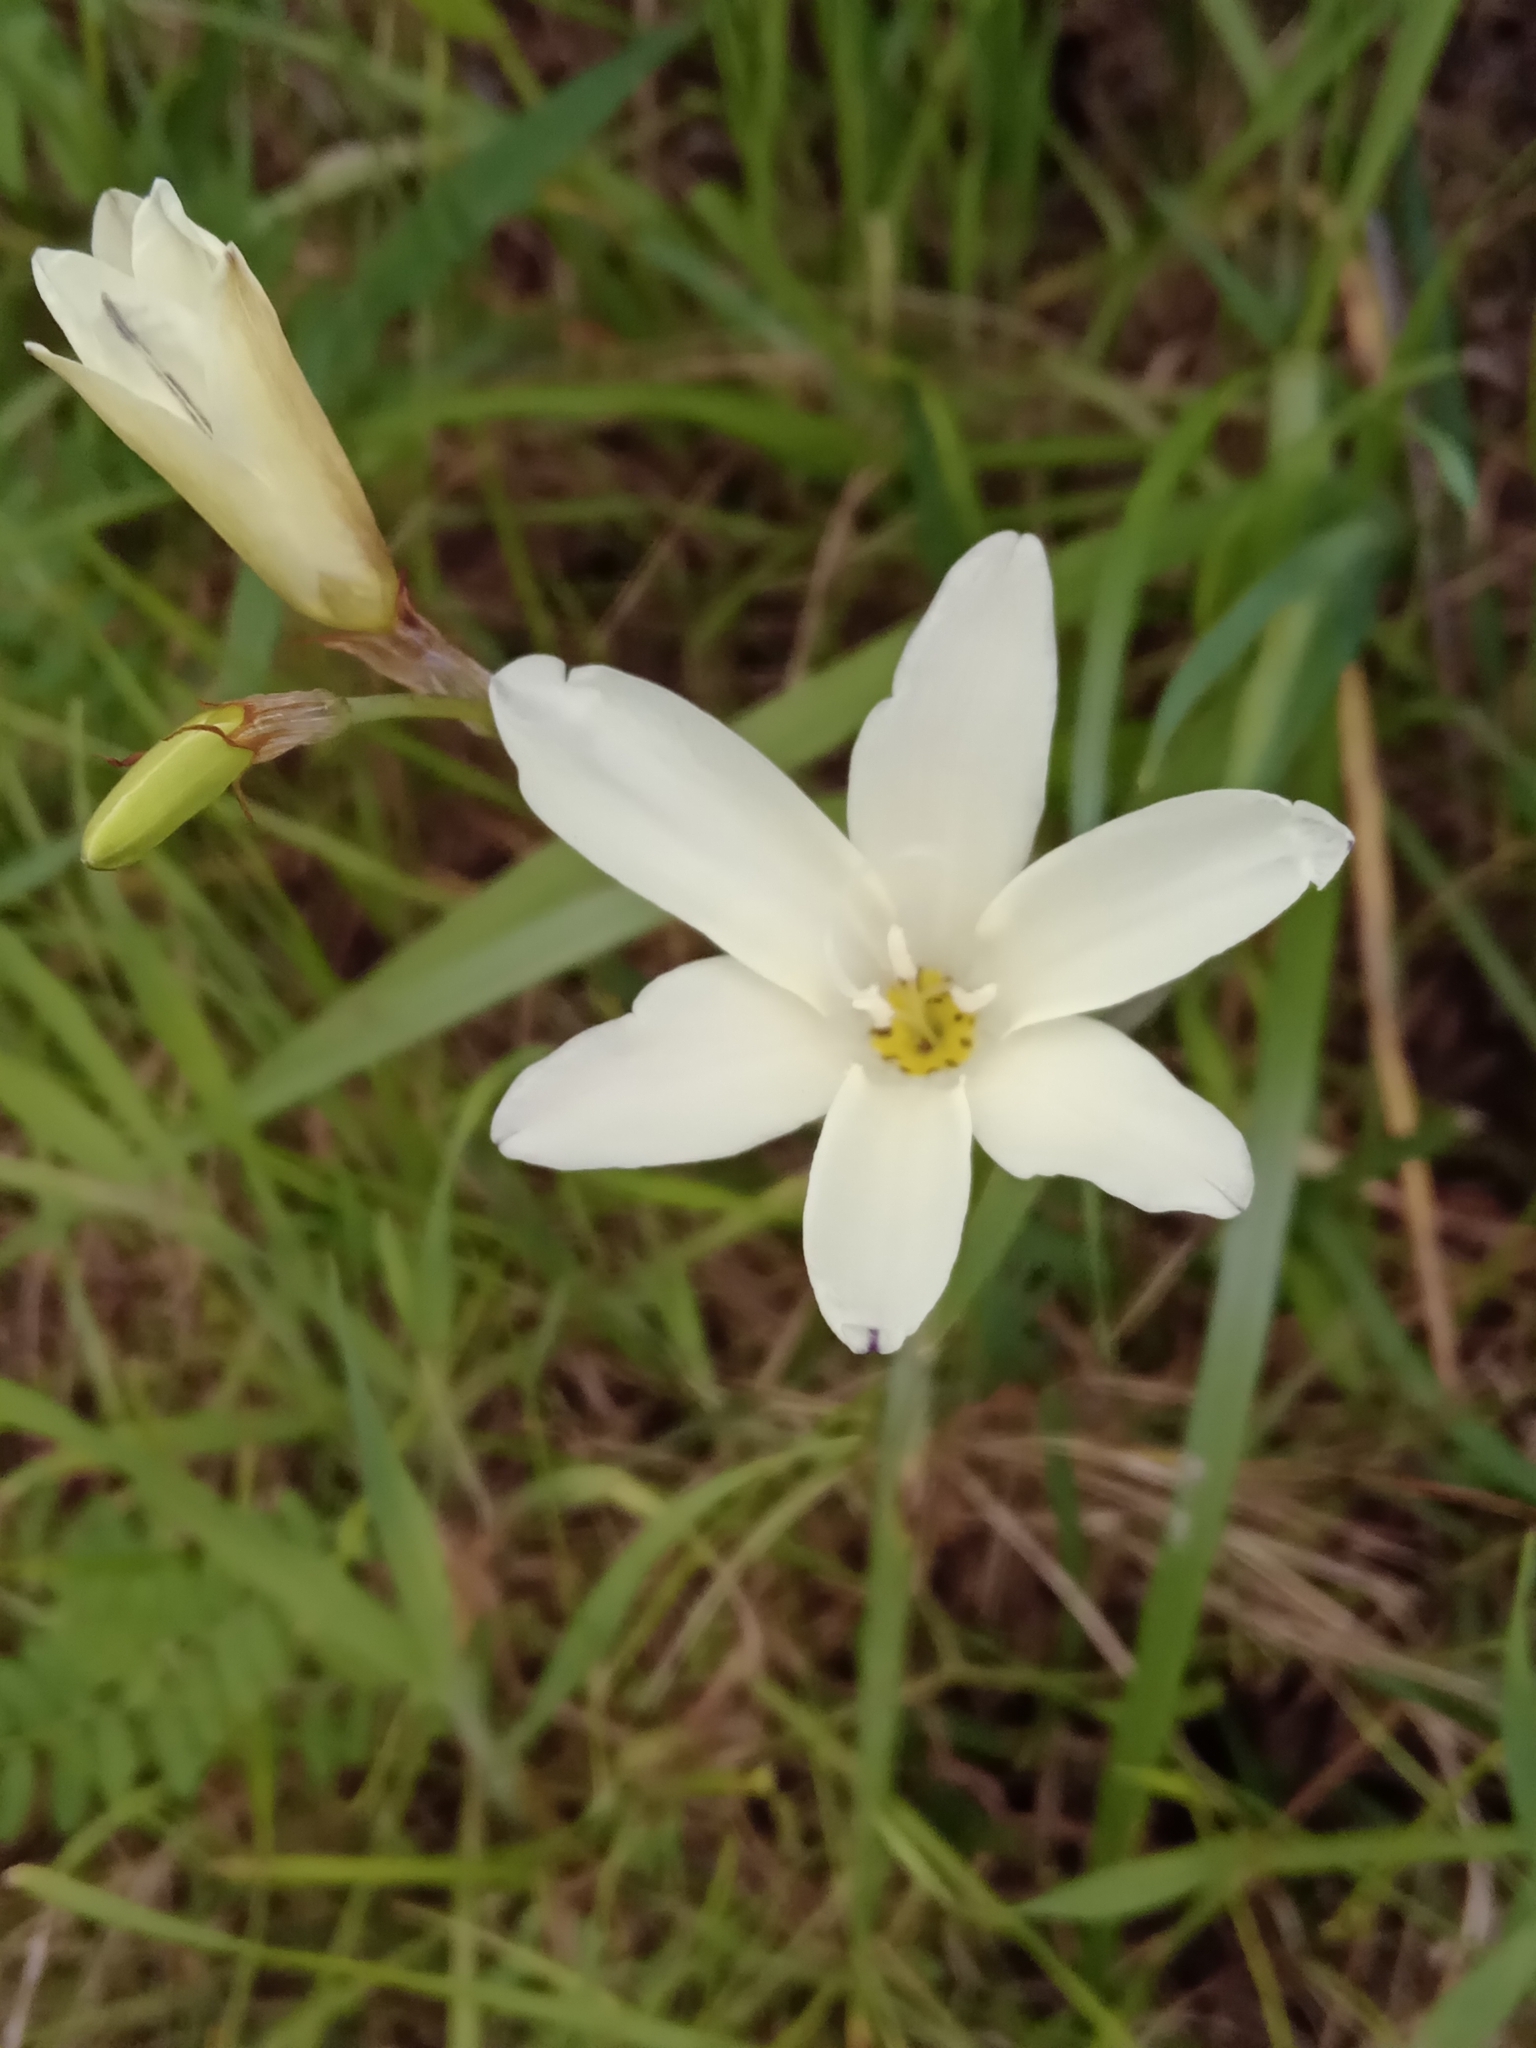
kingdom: Plantae
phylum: Tracheophyta
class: Liliopsida
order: Asparagales
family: Iridaceae
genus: Sparaxis
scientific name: Sparaxis bulbifera
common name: Harlequin-flower
